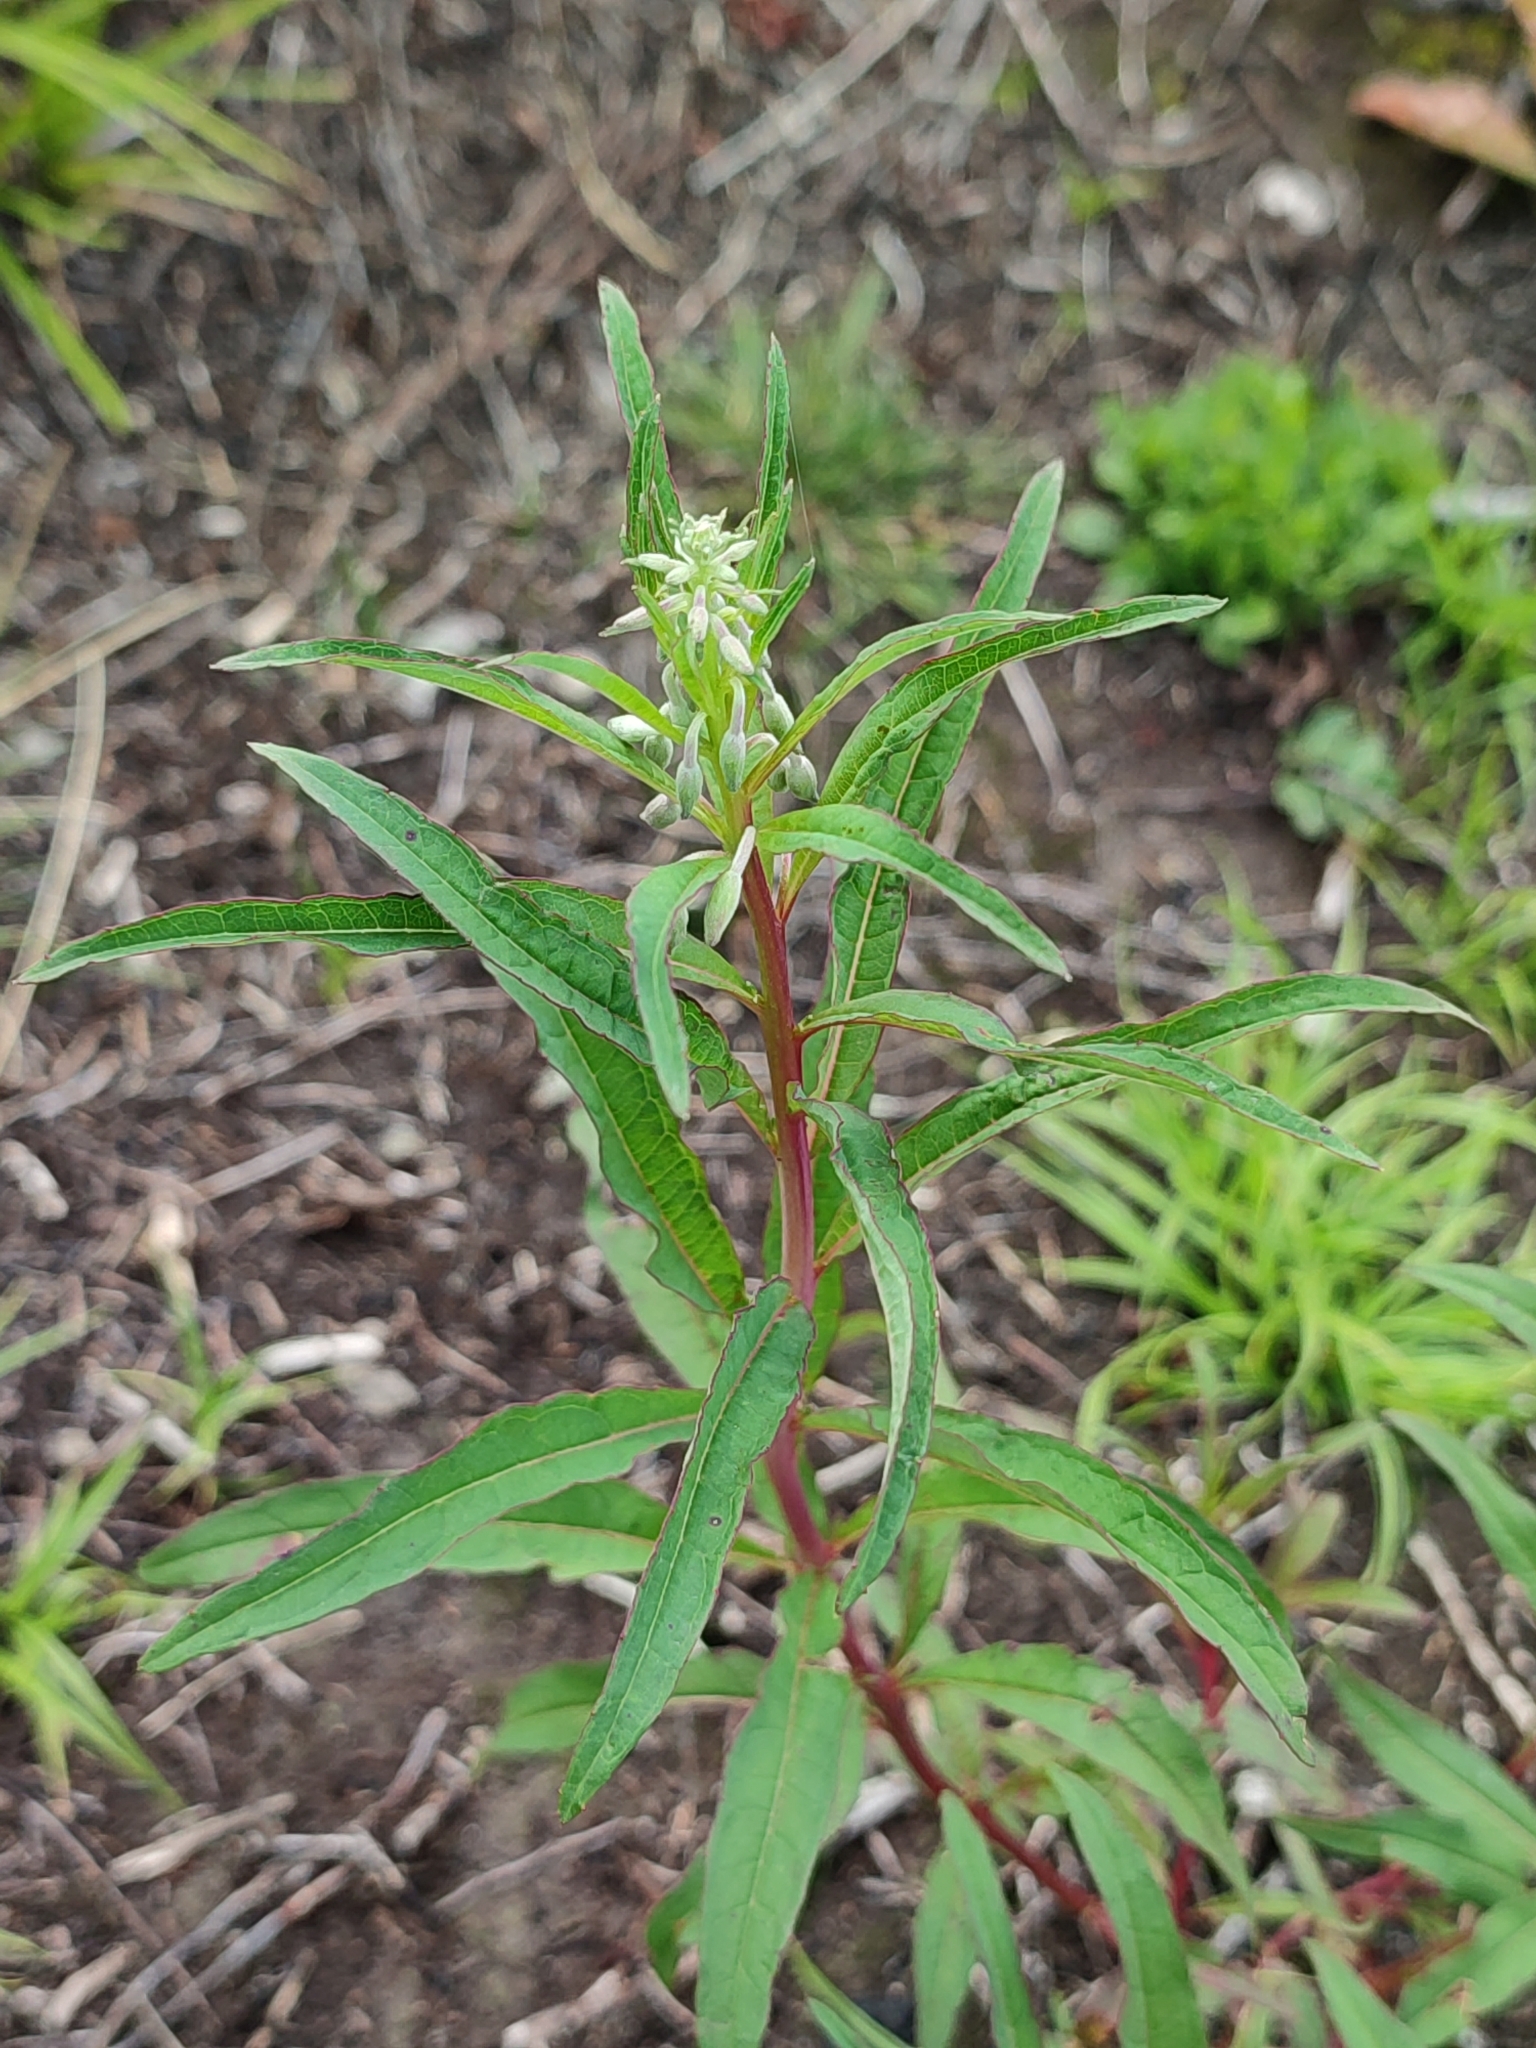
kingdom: Plantae
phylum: Tracheophyta
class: Magnoliopsida
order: Myrtales
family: Onagraceae
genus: Chamaenerion
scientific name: Chamaenerion angustifolium
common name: Fireweed
